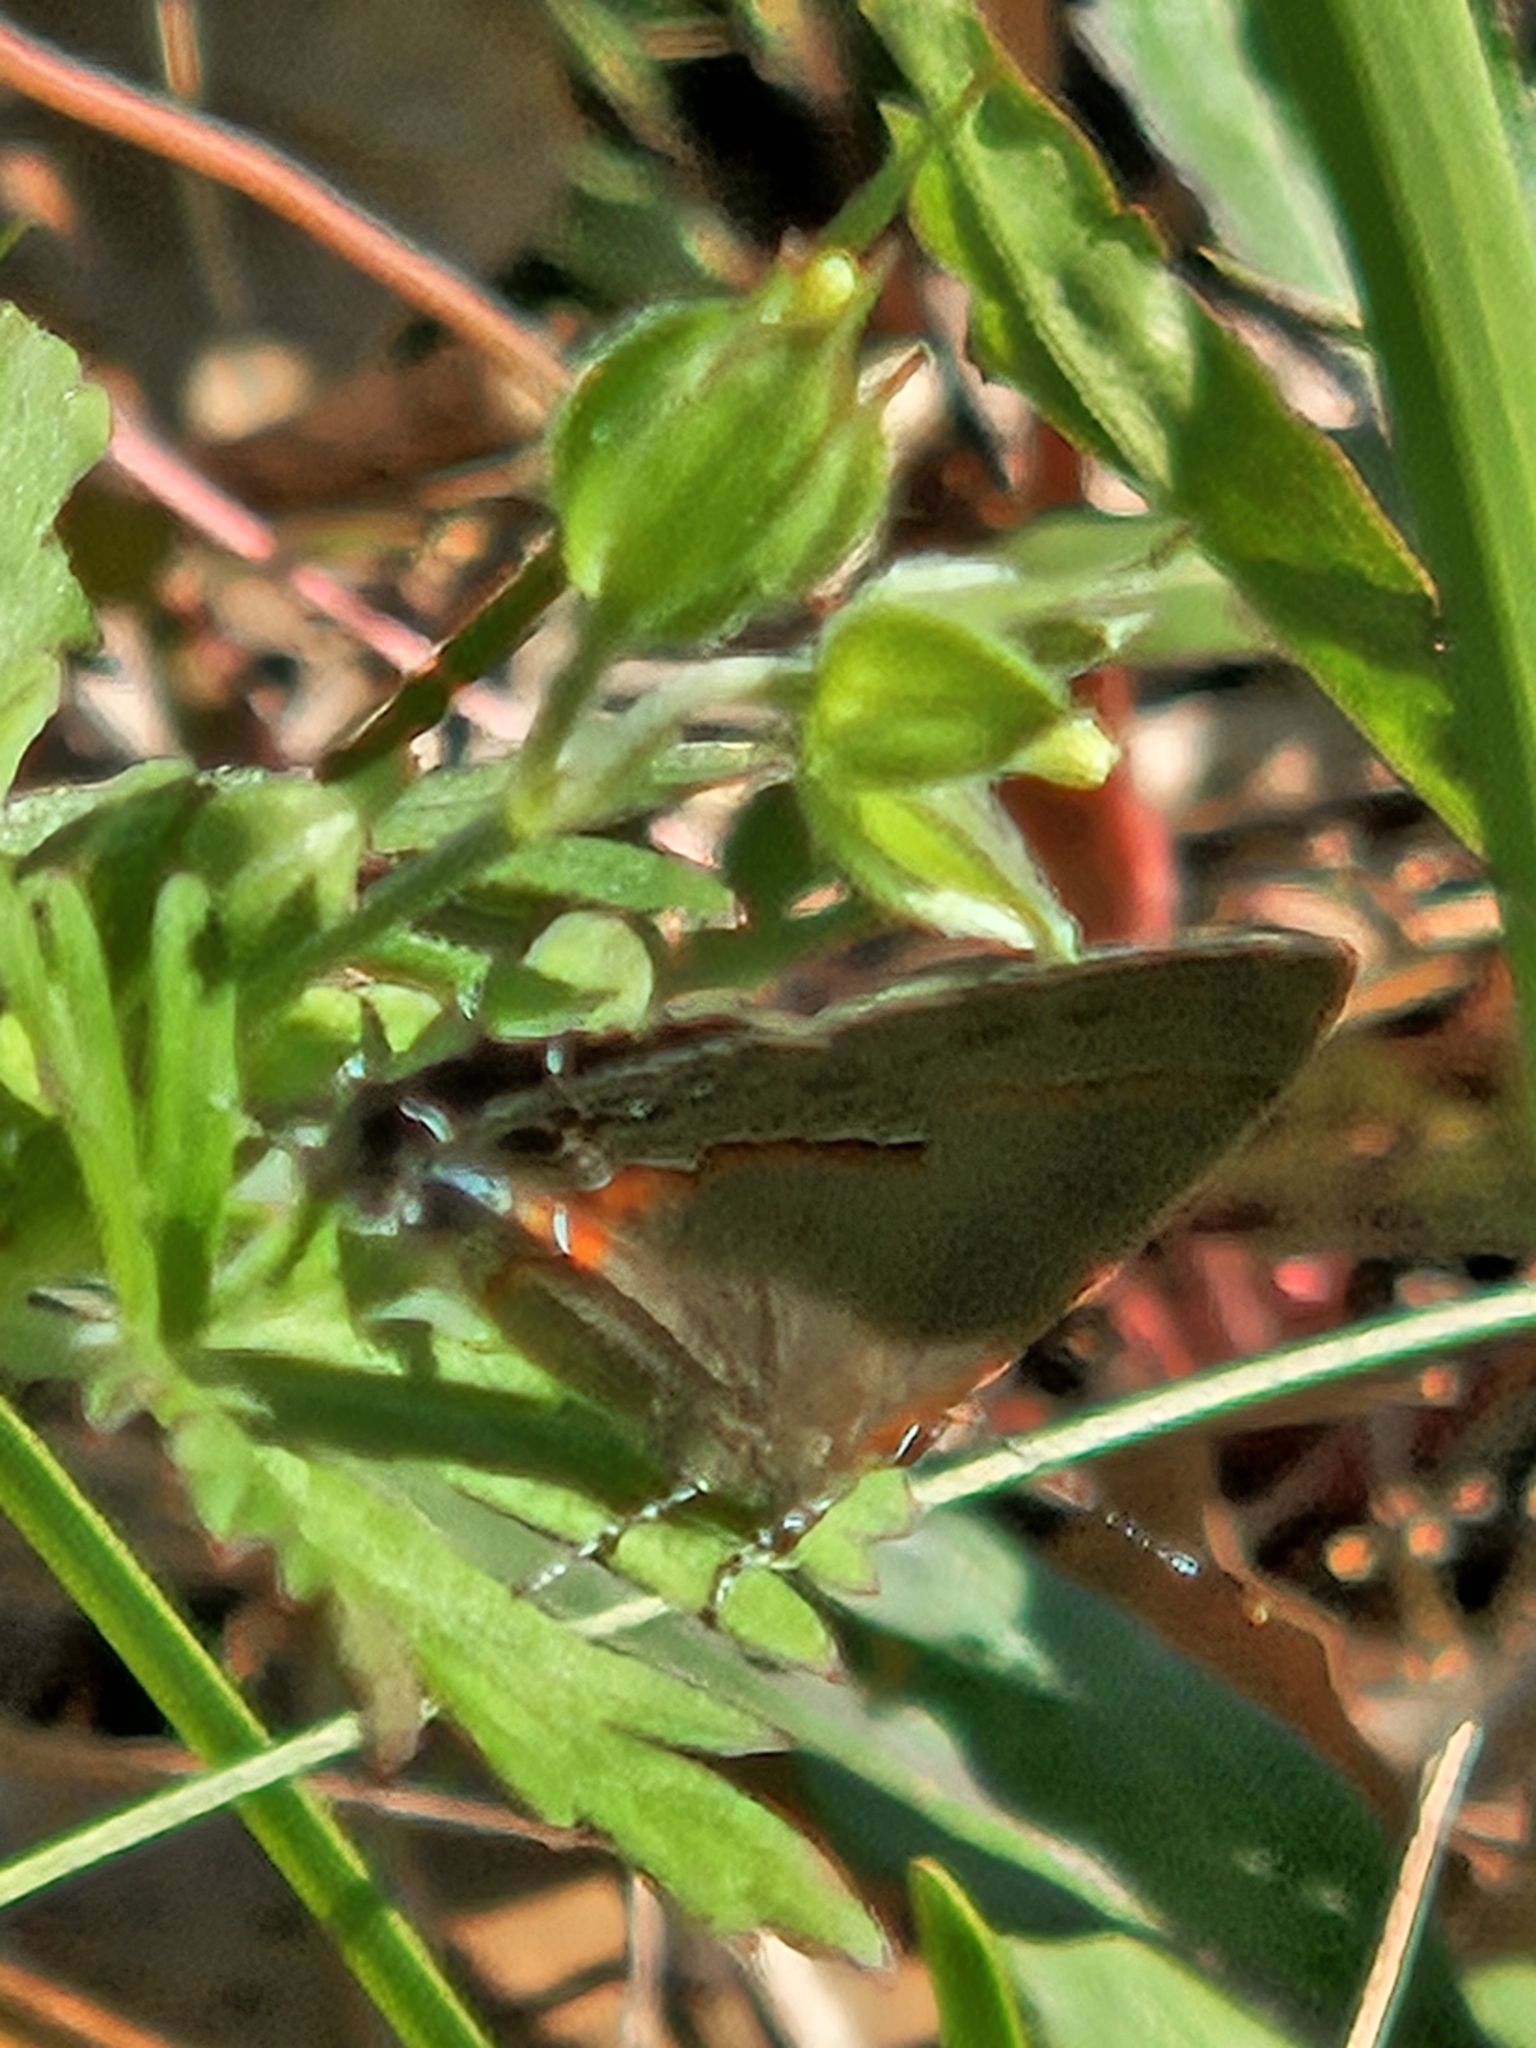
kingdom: Animalia
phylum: Arthropoda
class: Insecta
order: Lepidoptera
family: Lycaenidae
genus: Calycopis
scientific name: Calycopis cecrops
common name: Red-banded hairstreak
